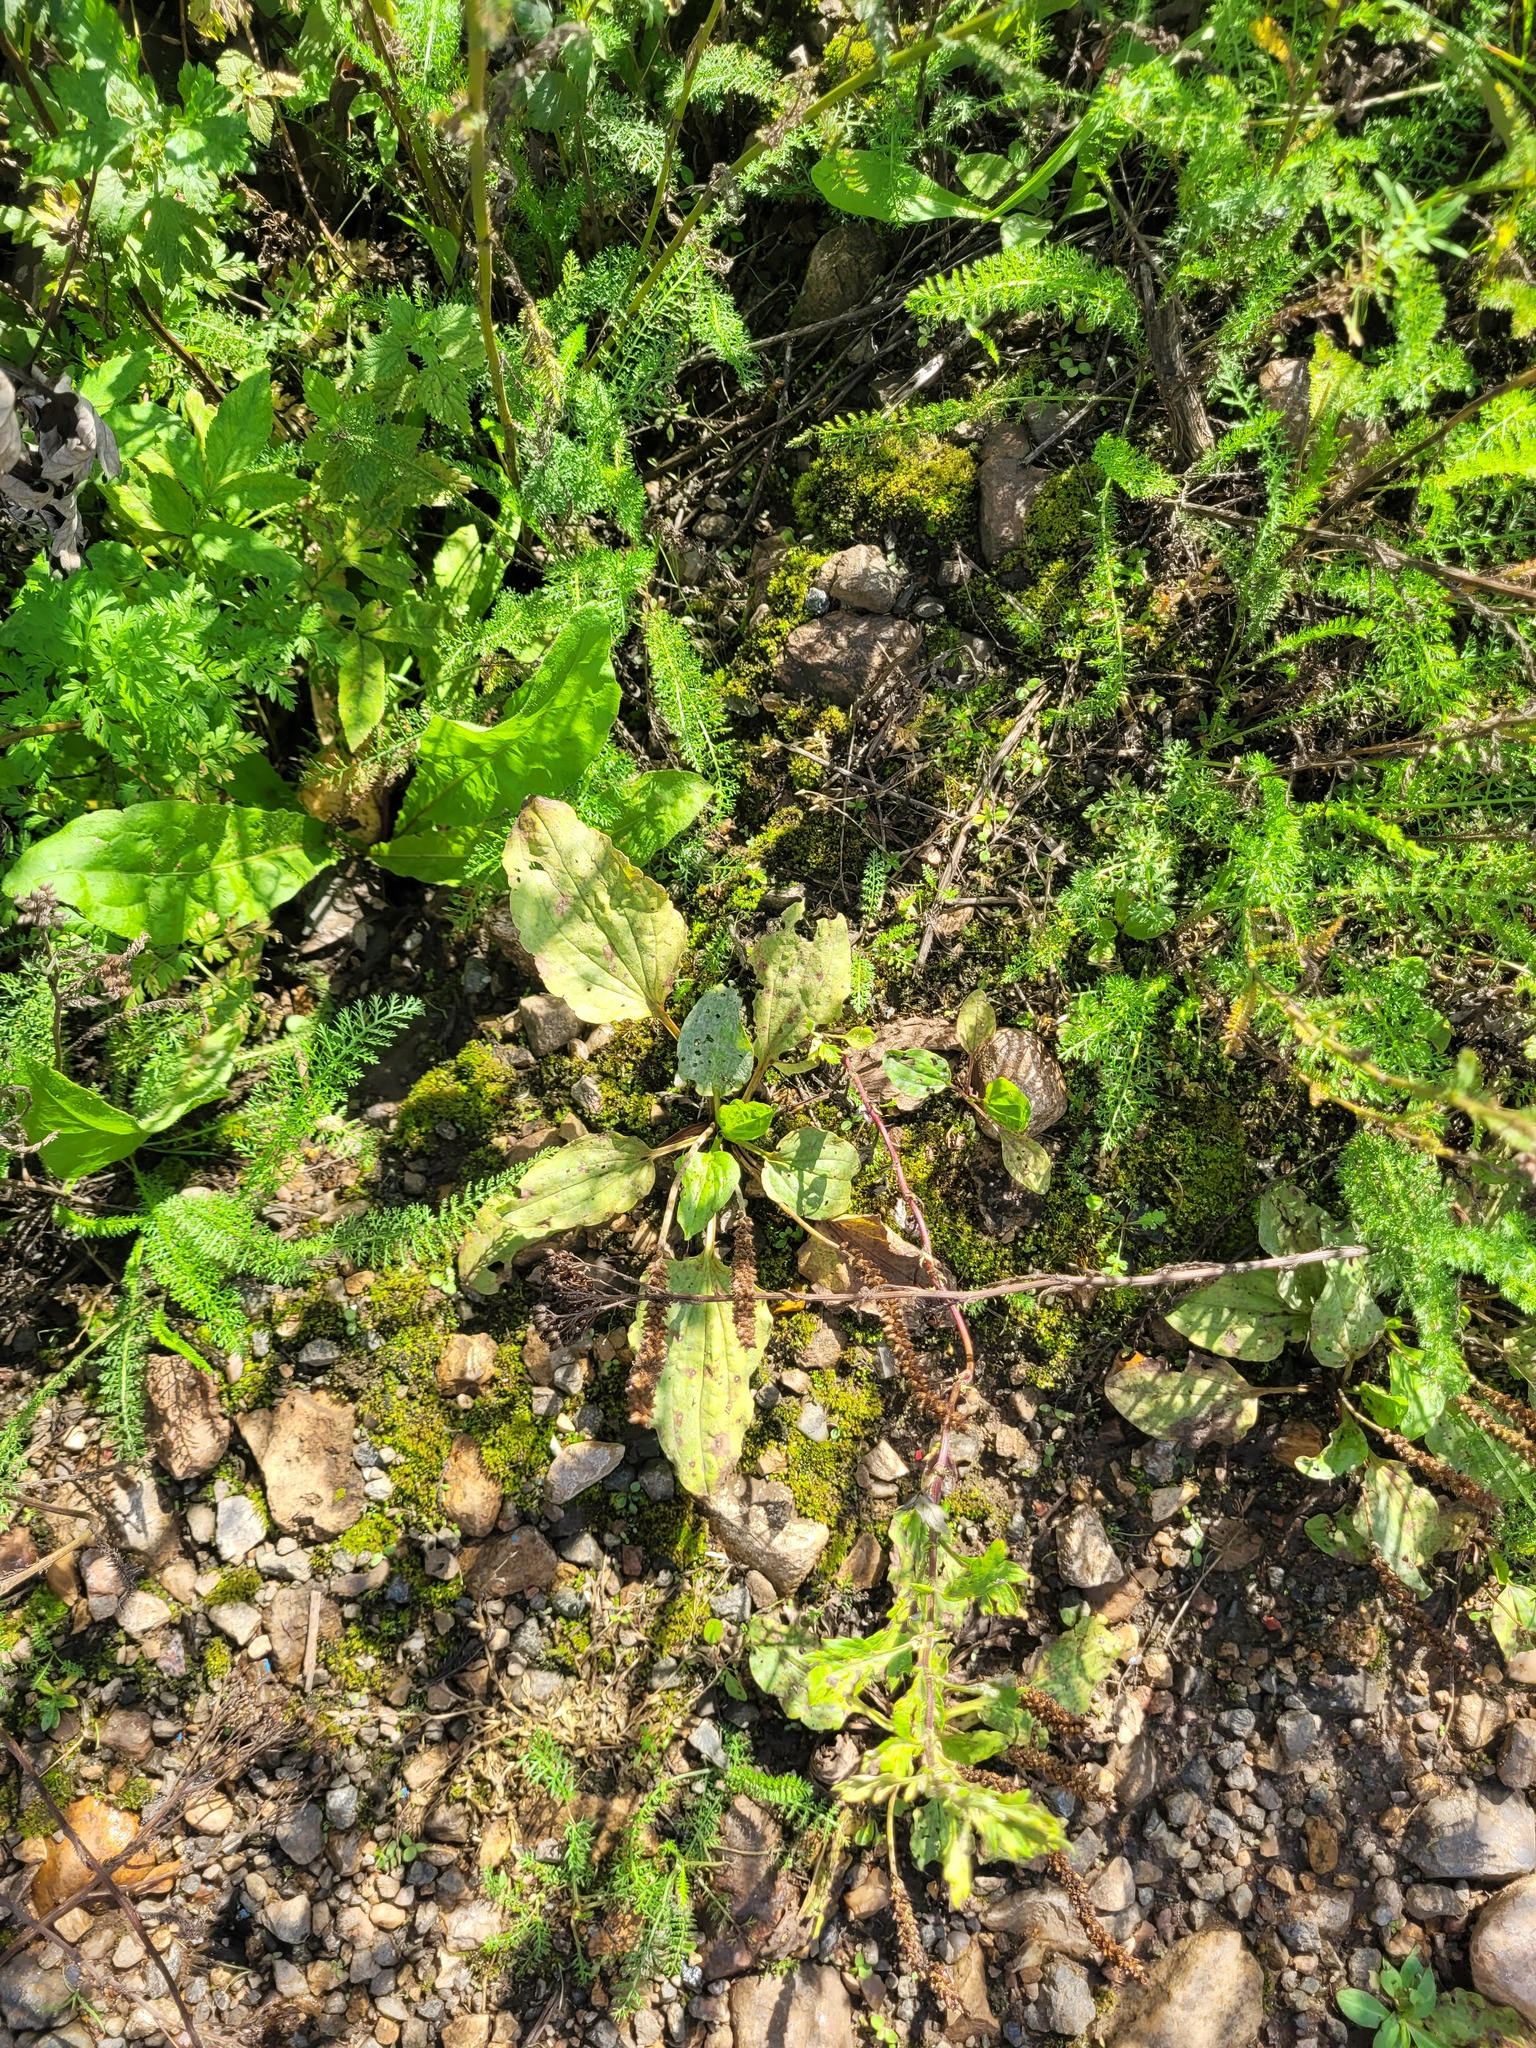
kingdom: Plantae
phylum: Tracheophyta
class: Magnoliopsida
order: Lamiales
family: Plantaginaceae
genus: Plantago
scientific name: Plantago major
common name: Common plantain
